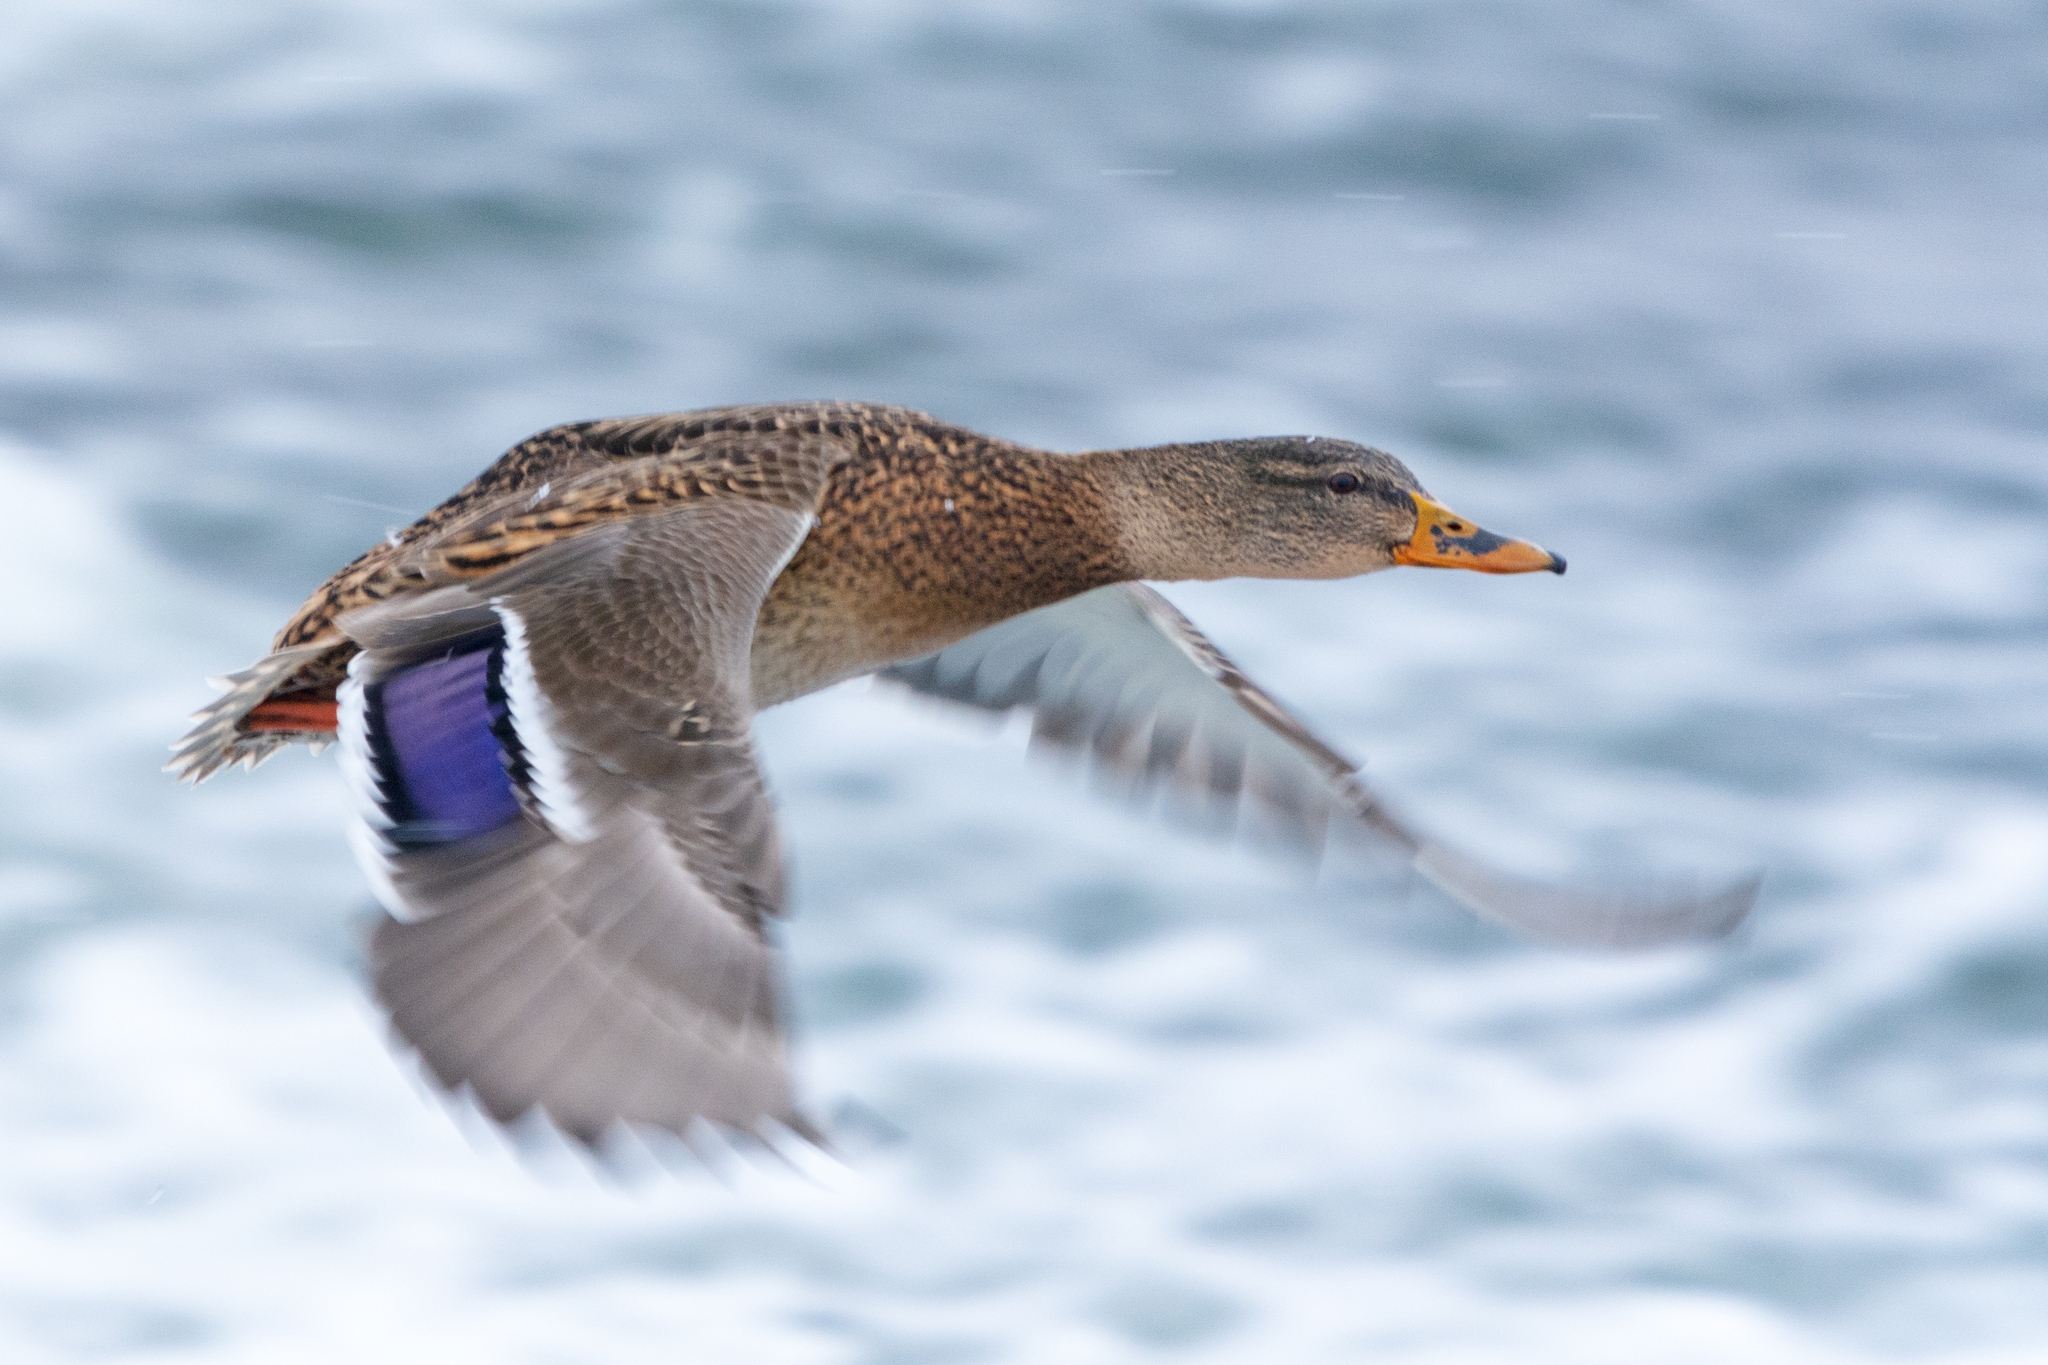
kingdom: Animalia
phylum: Chordata
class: Aves
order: Anseriformes
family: Anatidae
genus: Anas
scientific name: Anas platyrhynchos
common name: Mallard
